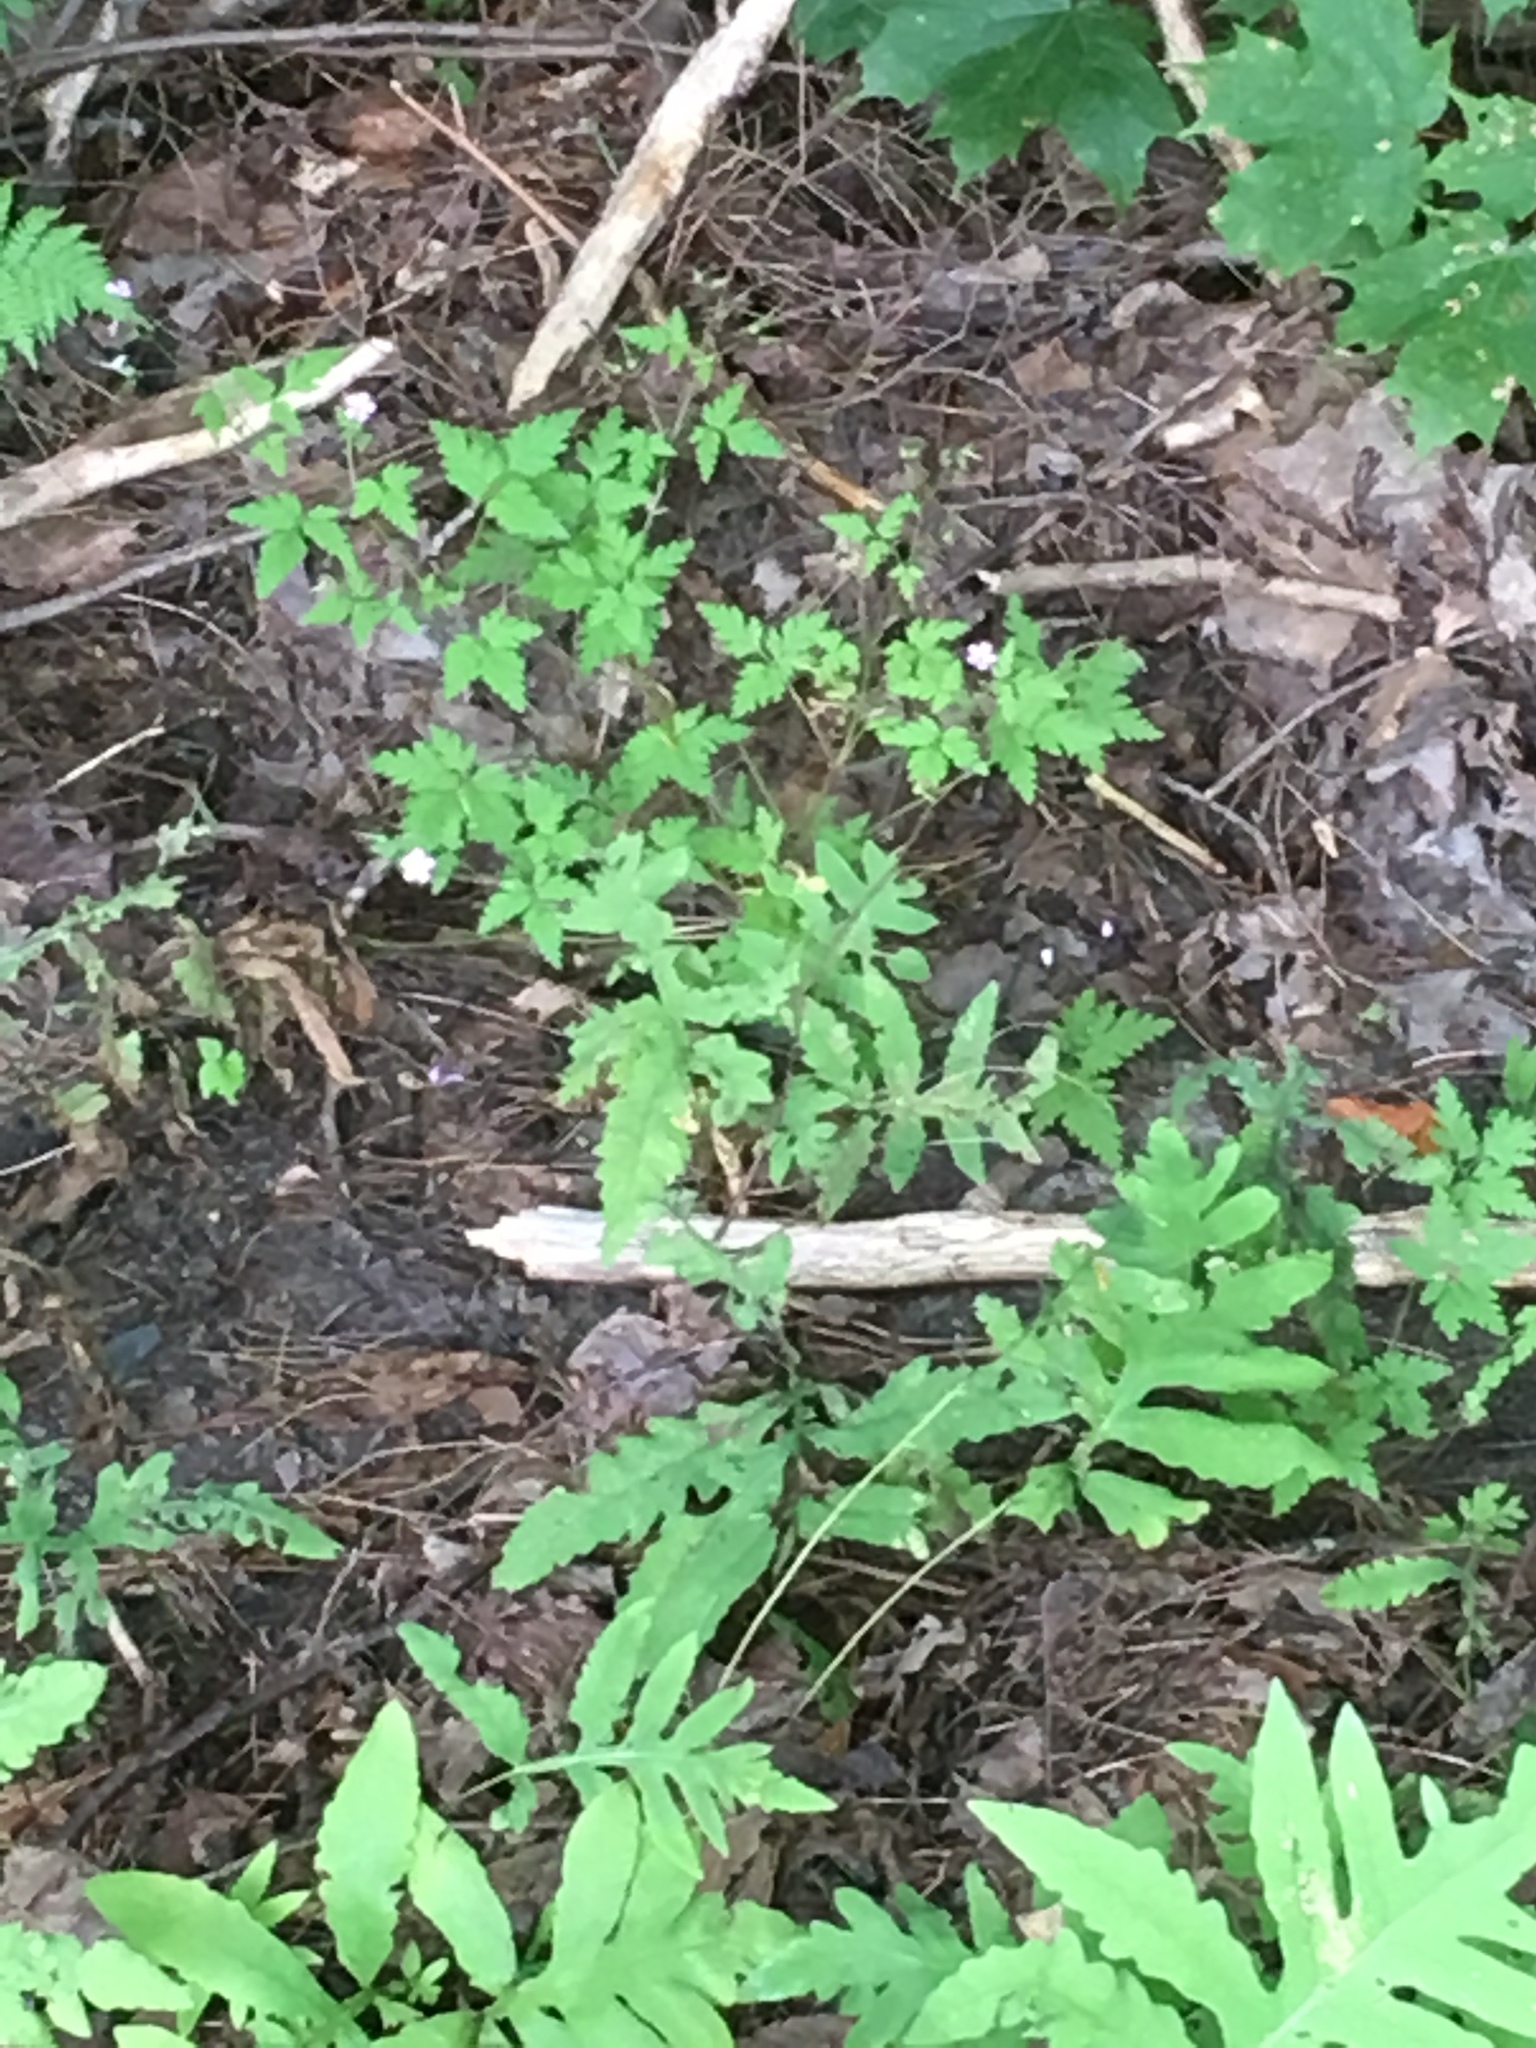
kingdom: Plantae
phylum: Tracheophyta
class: Magnoliopsida
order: Geraniales
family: Geraniaceae
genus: Geranium
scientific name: Geranium robertianum
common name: Herb-robert
